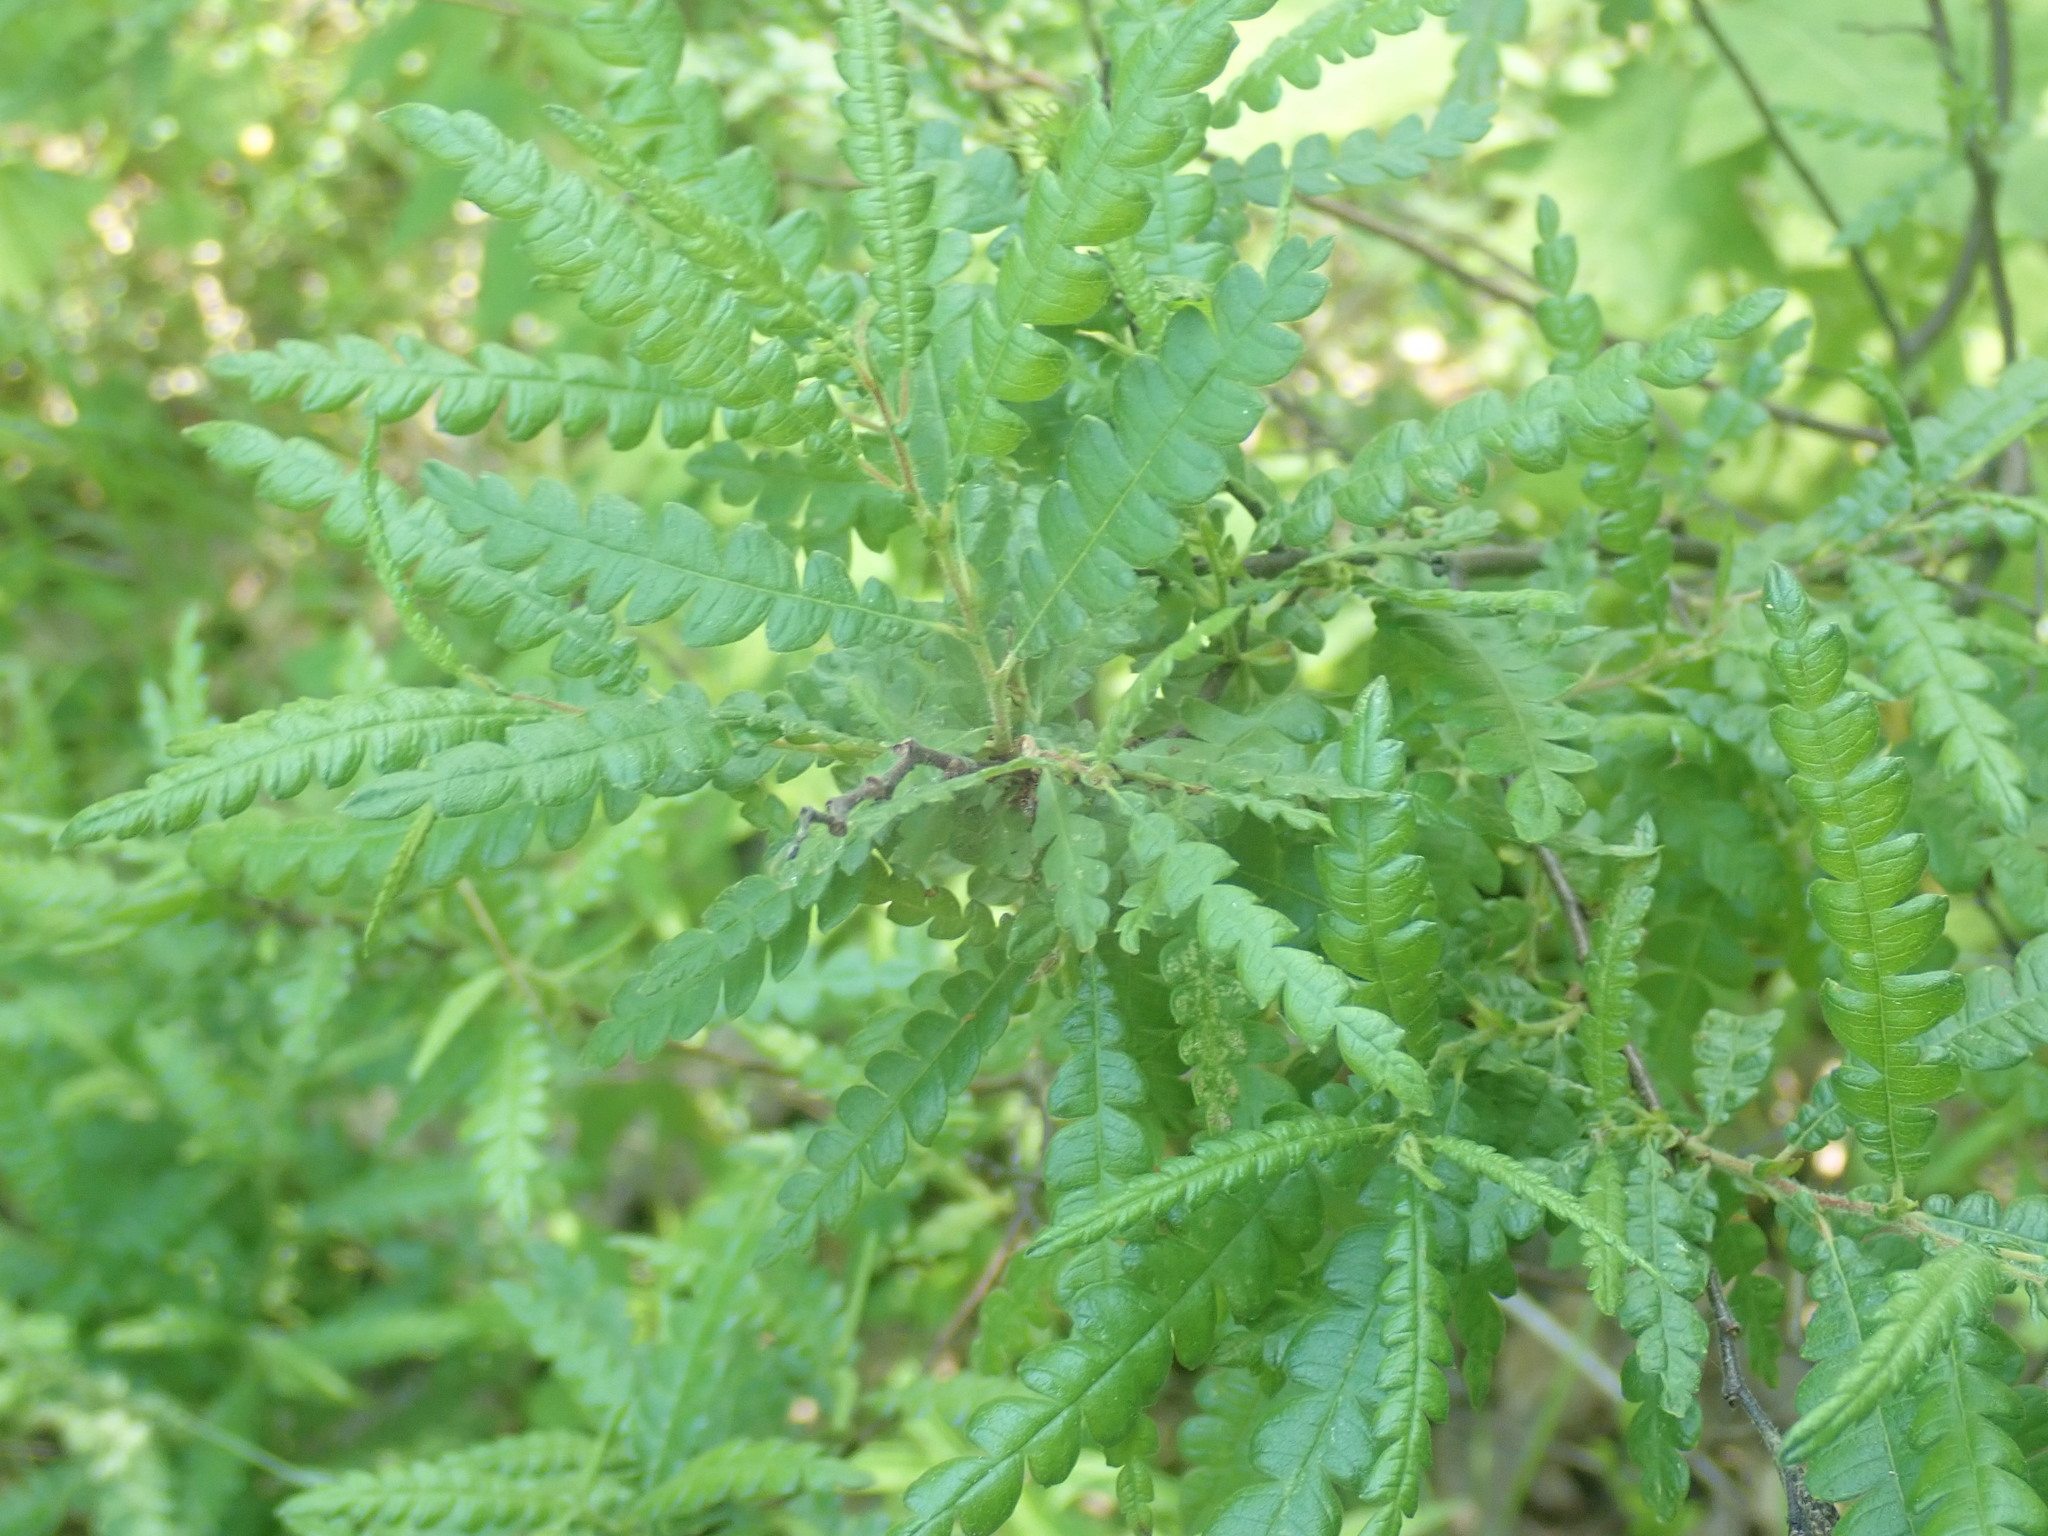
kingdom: Plantae
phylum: Tracheophyta
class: Magnoliopsida
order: Fagales
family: Myricaceae
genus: Comptonia
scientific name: Comptonia peregrina
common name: Sweet-fern
